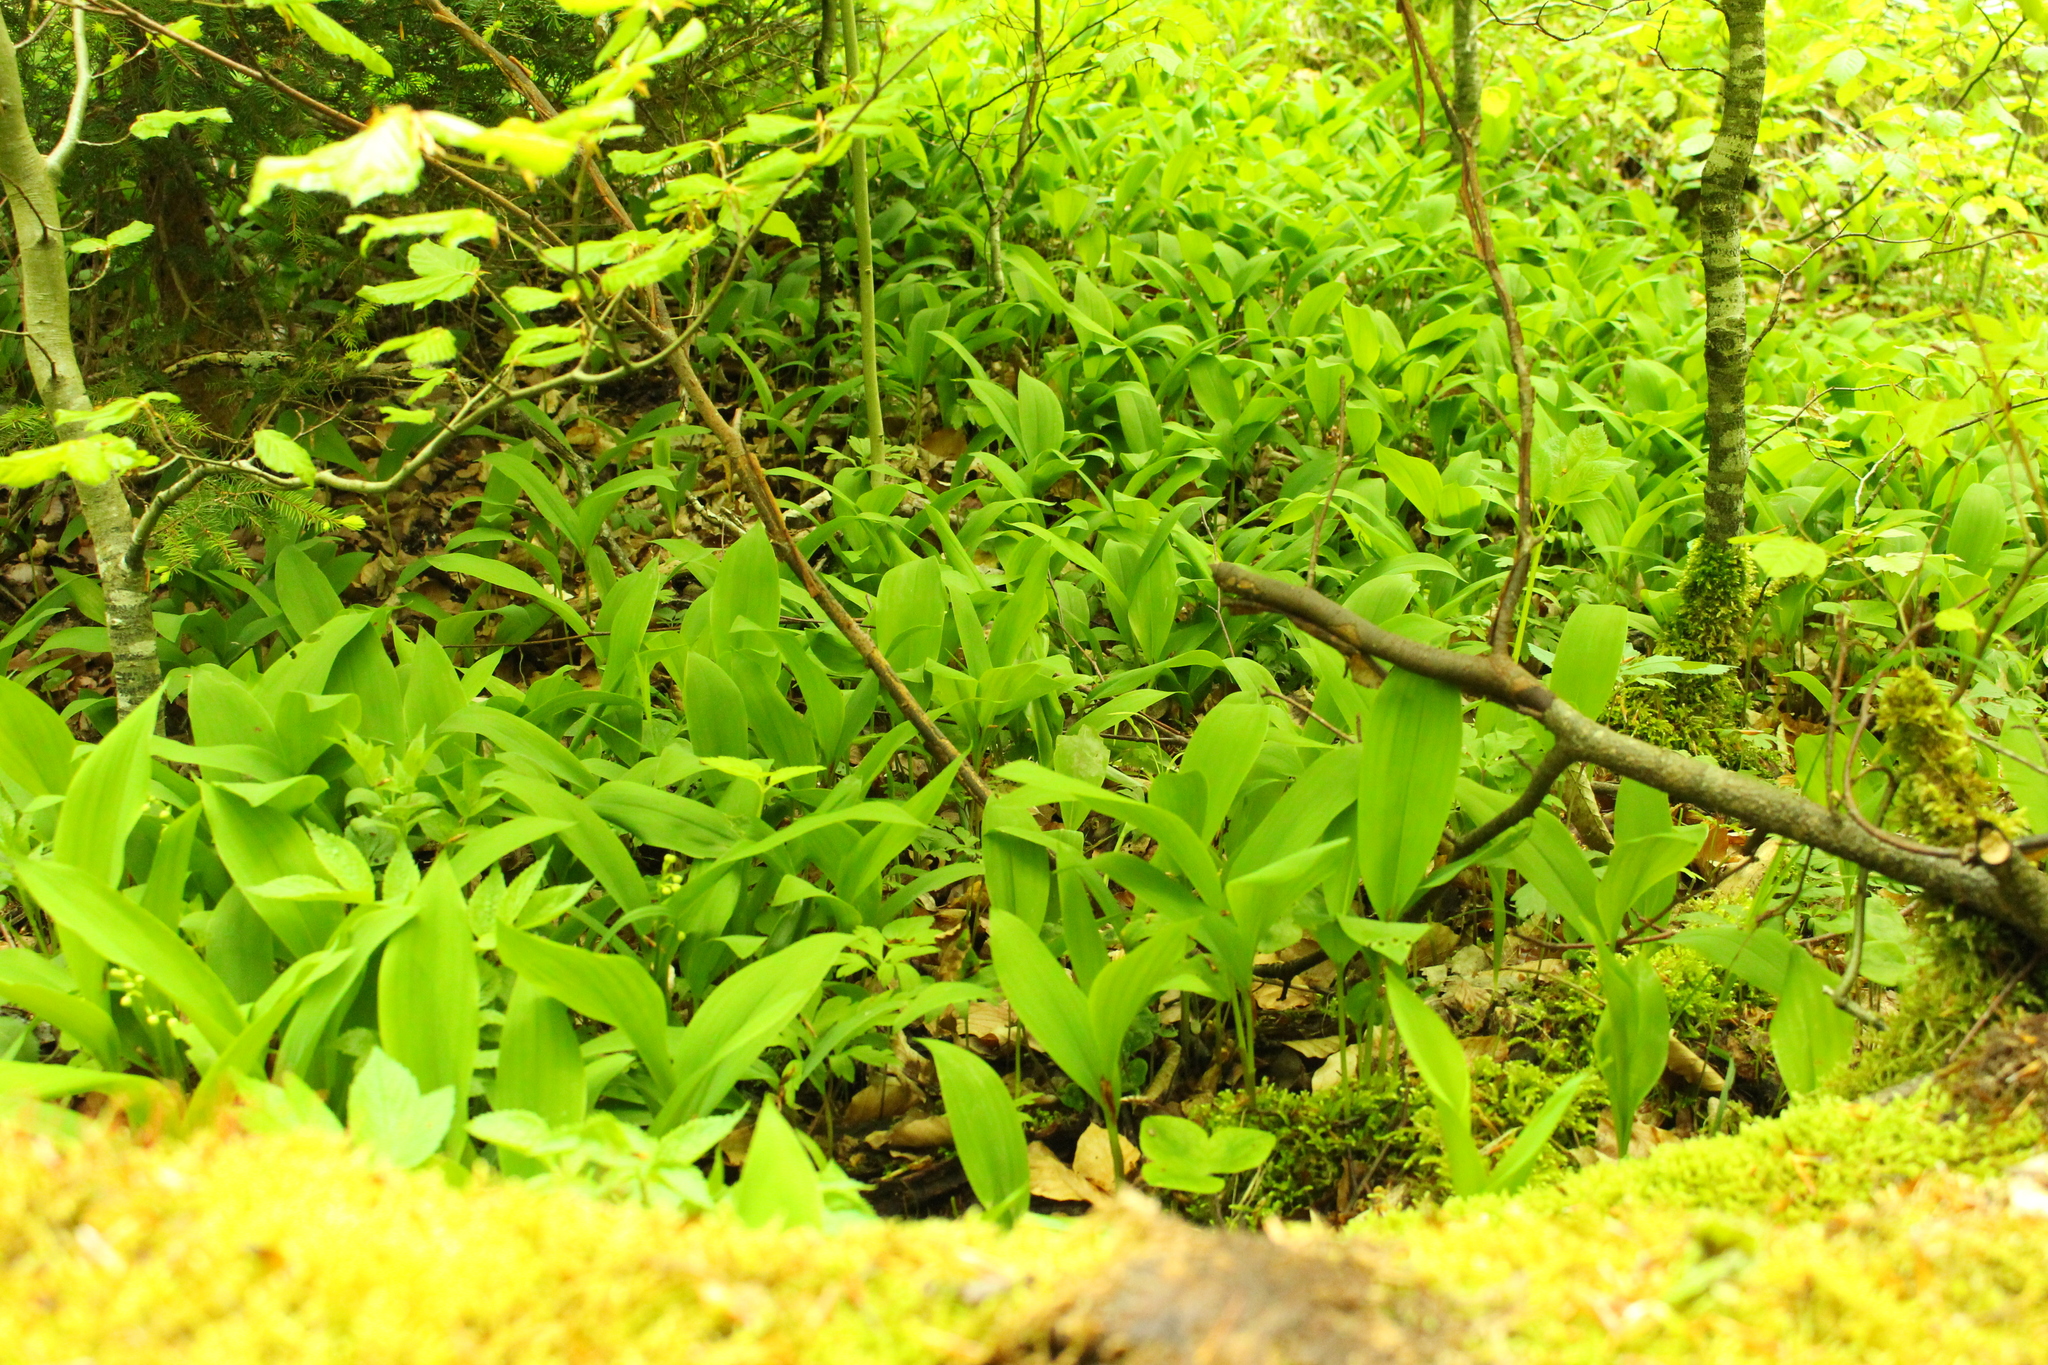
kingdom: Plantae
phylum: Tracheophyta
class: Liliopsida
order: Asparagales
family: Asparagaceae
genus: Convallaria
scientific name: Convallaria majalis
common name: Lily-of-the-valley
